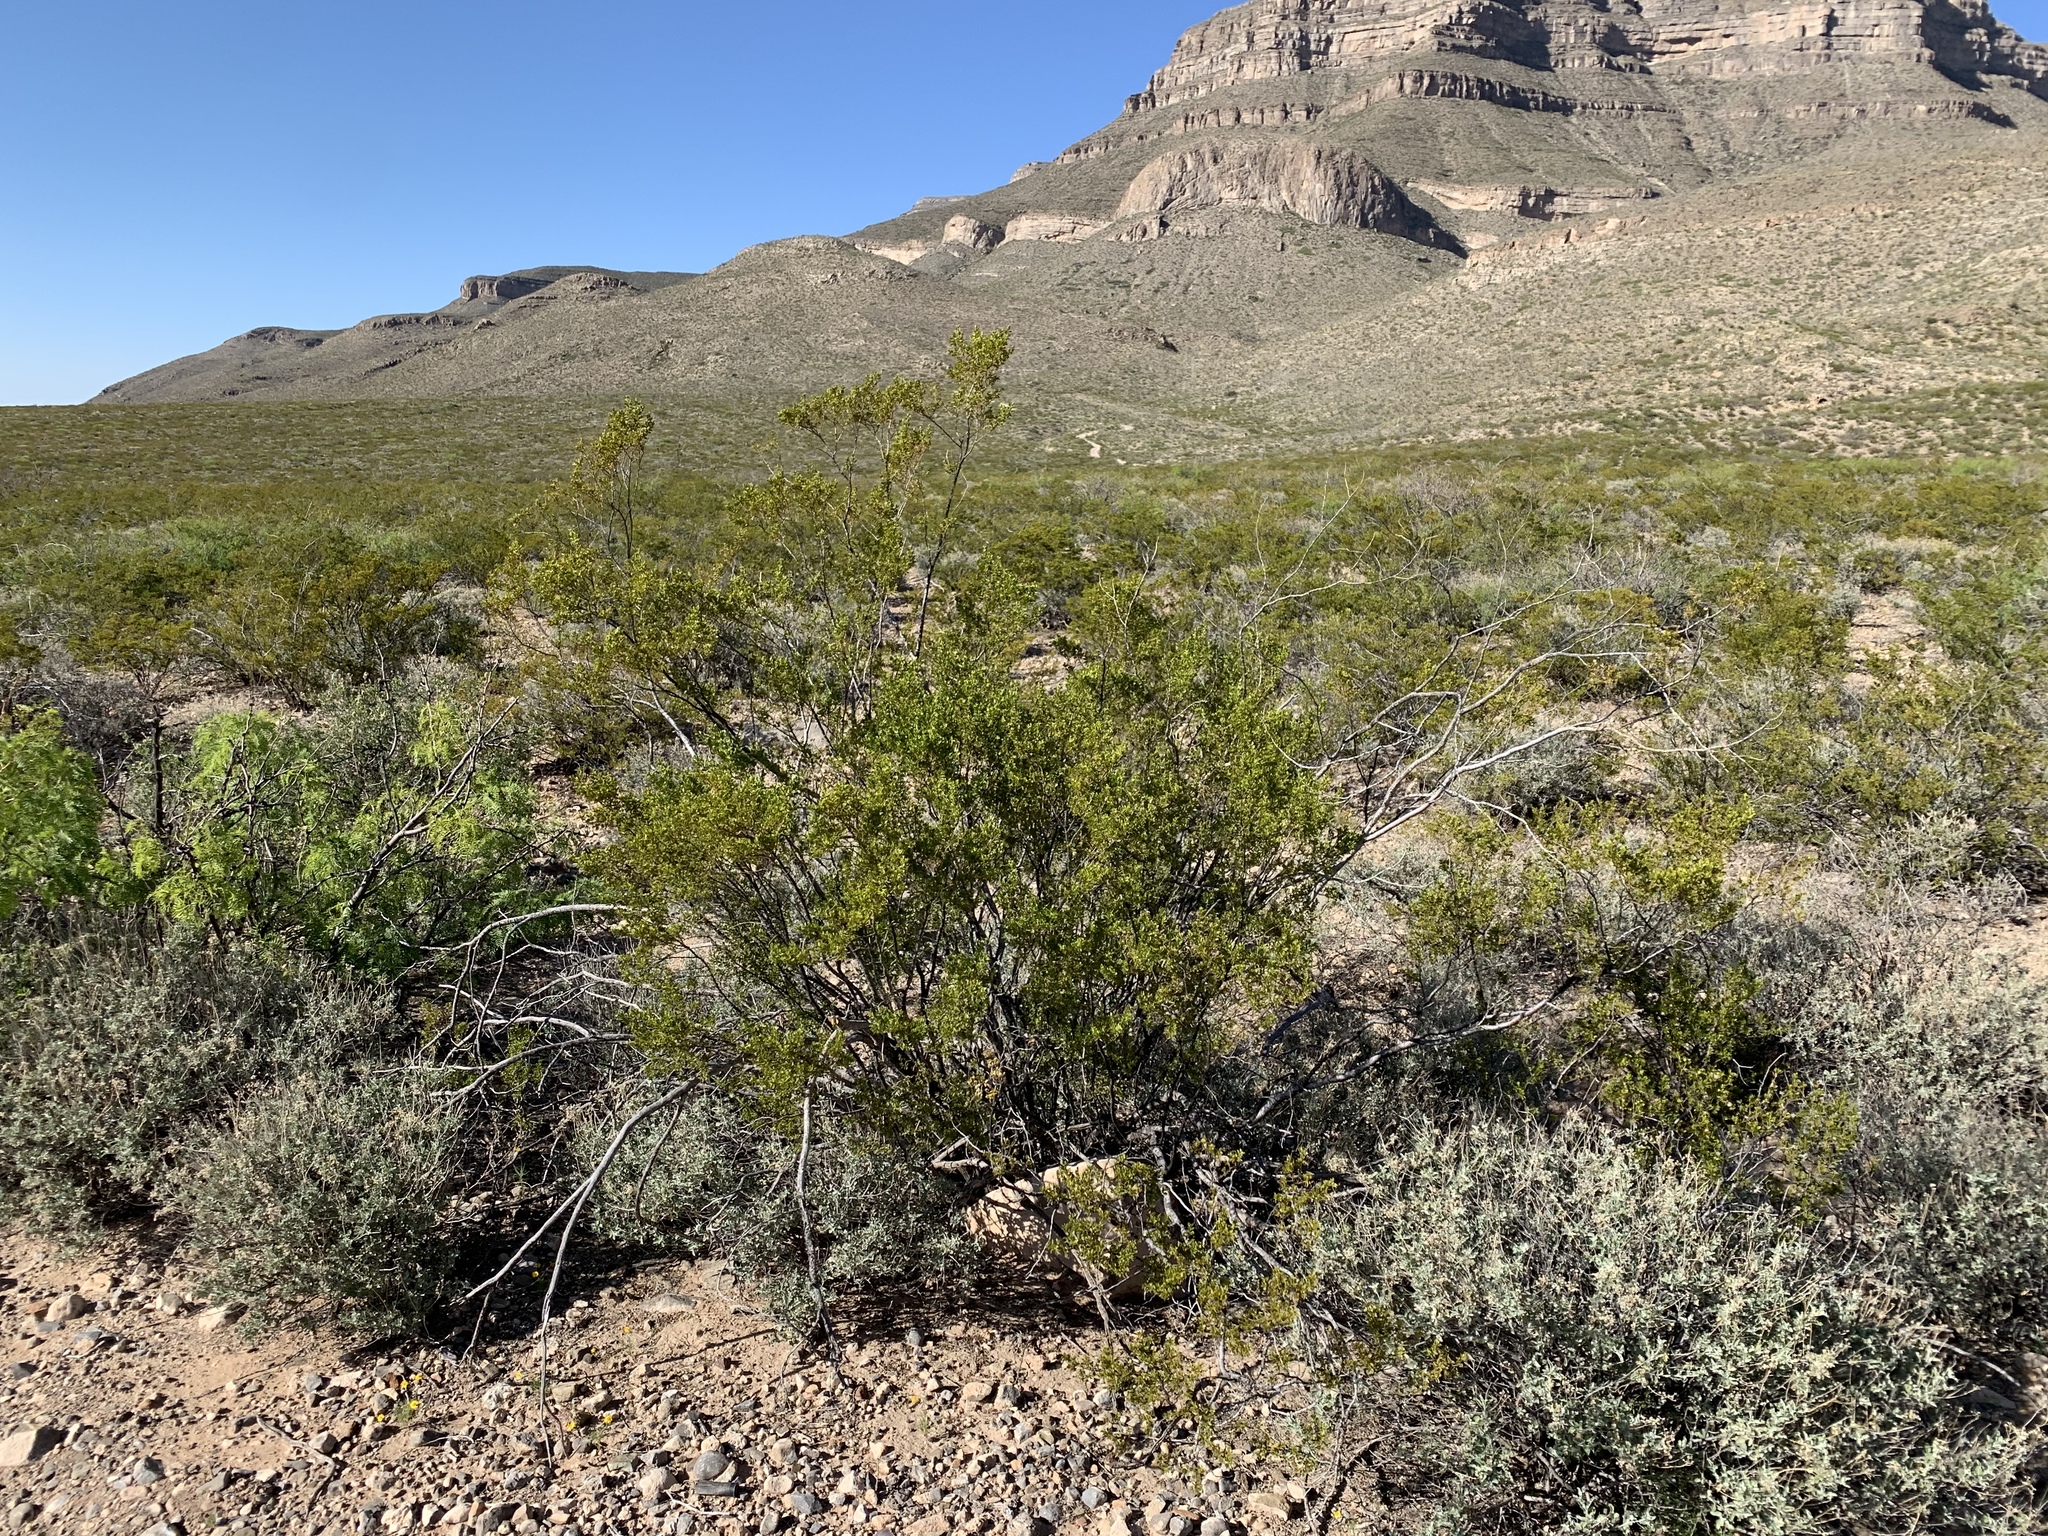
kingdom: Plantae
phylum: Tracheophyta
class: Magnoliopsida
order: Zygophyllales
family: Zygophyllaceae
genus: Larrea
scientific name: Larrea tridentata
